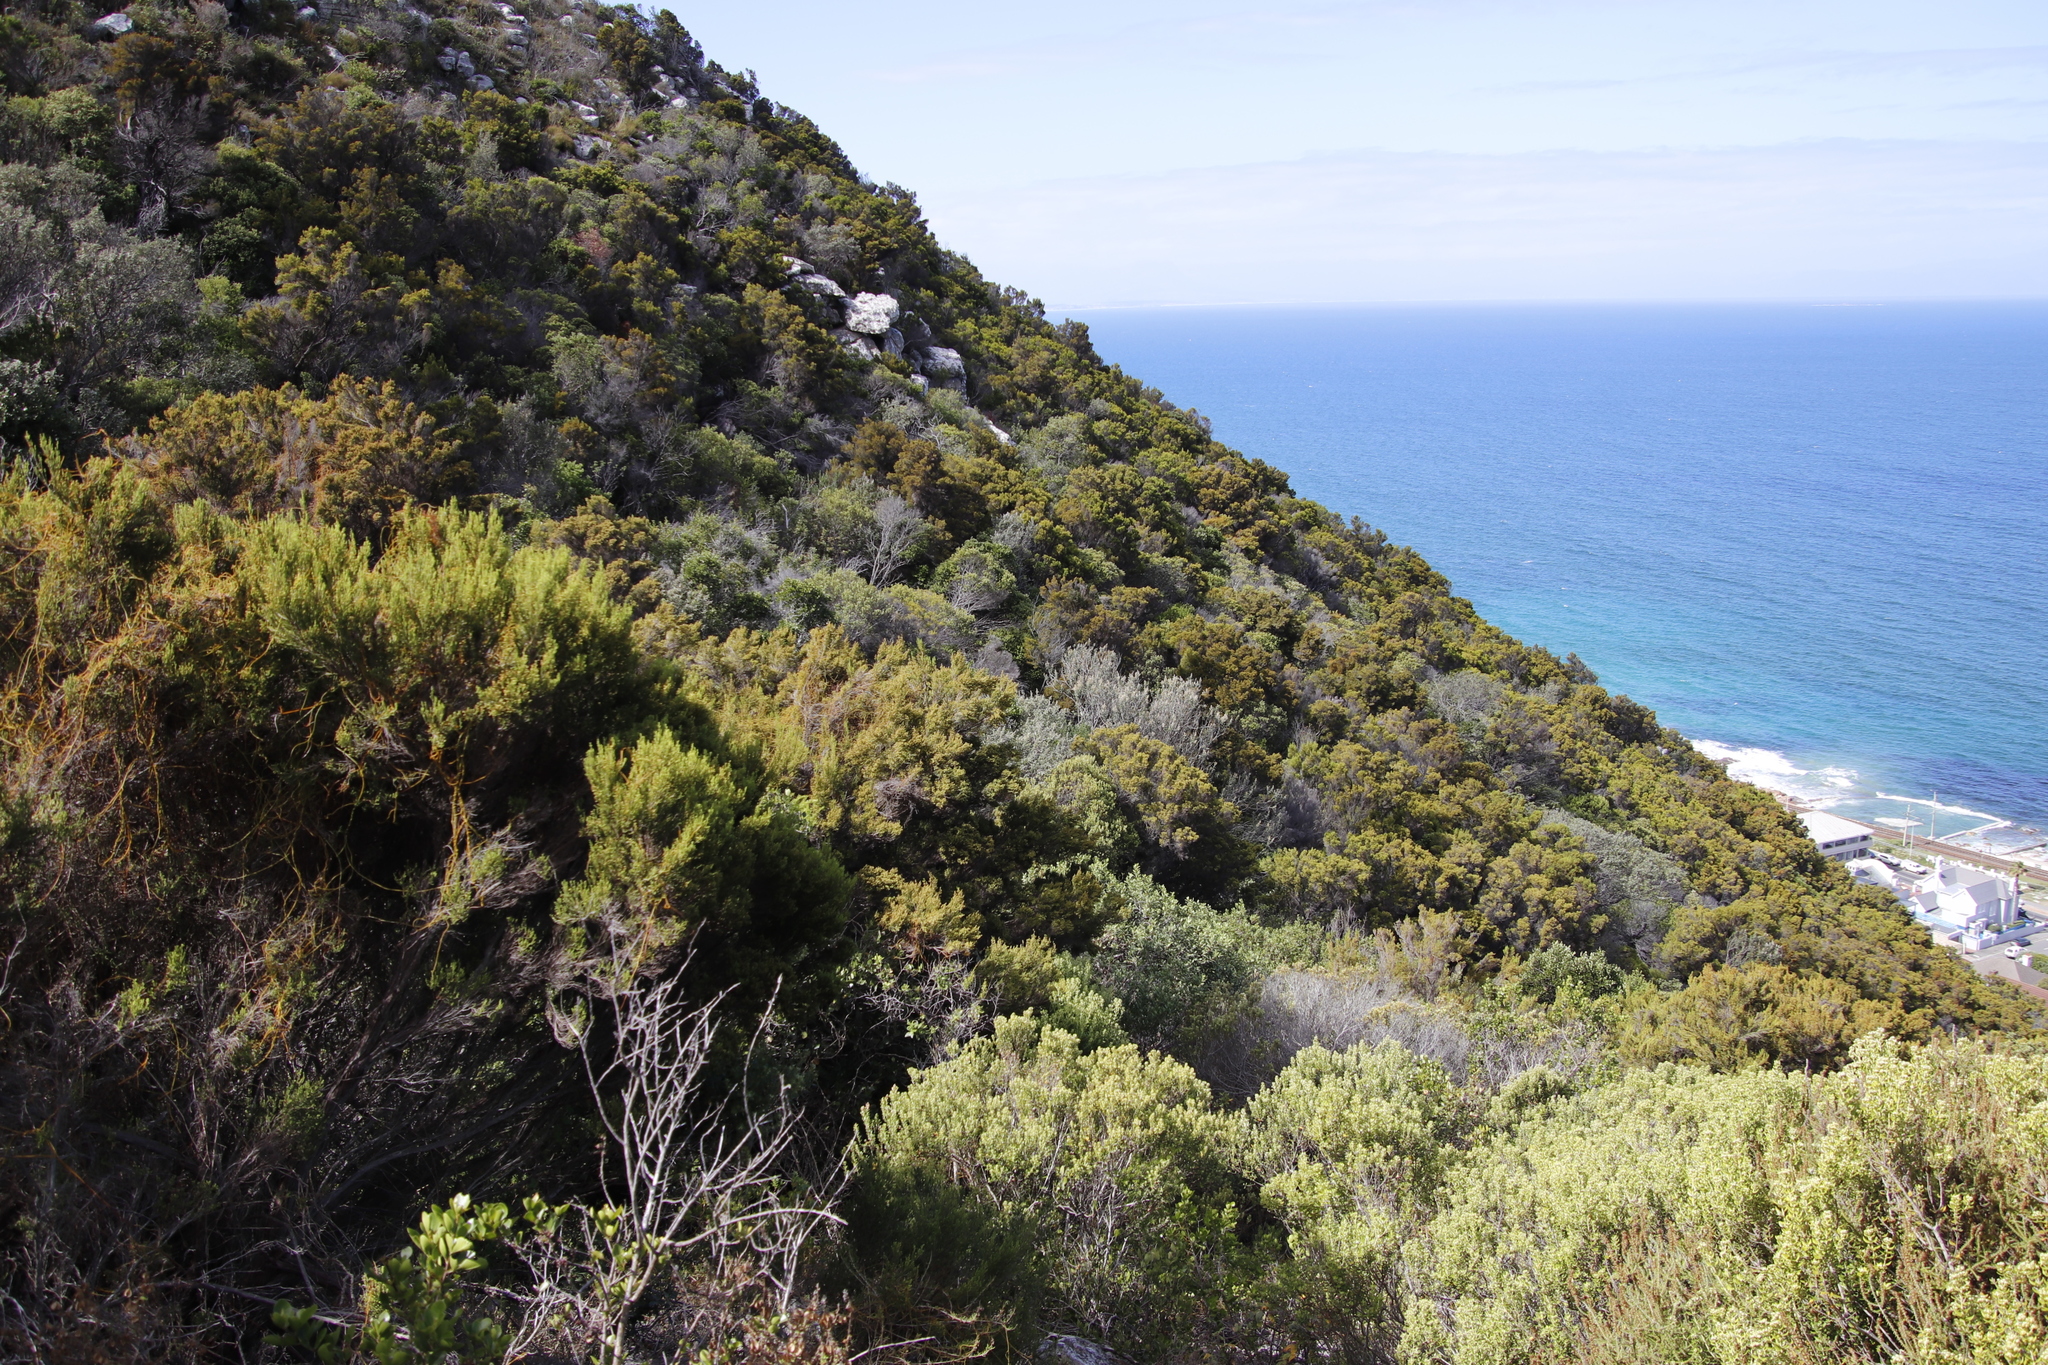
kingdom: Plantae
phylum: Tracheophyta
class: Magnoliopsida
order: Ericales
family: Ericaceae
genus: Erica
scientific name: Erica tristis
